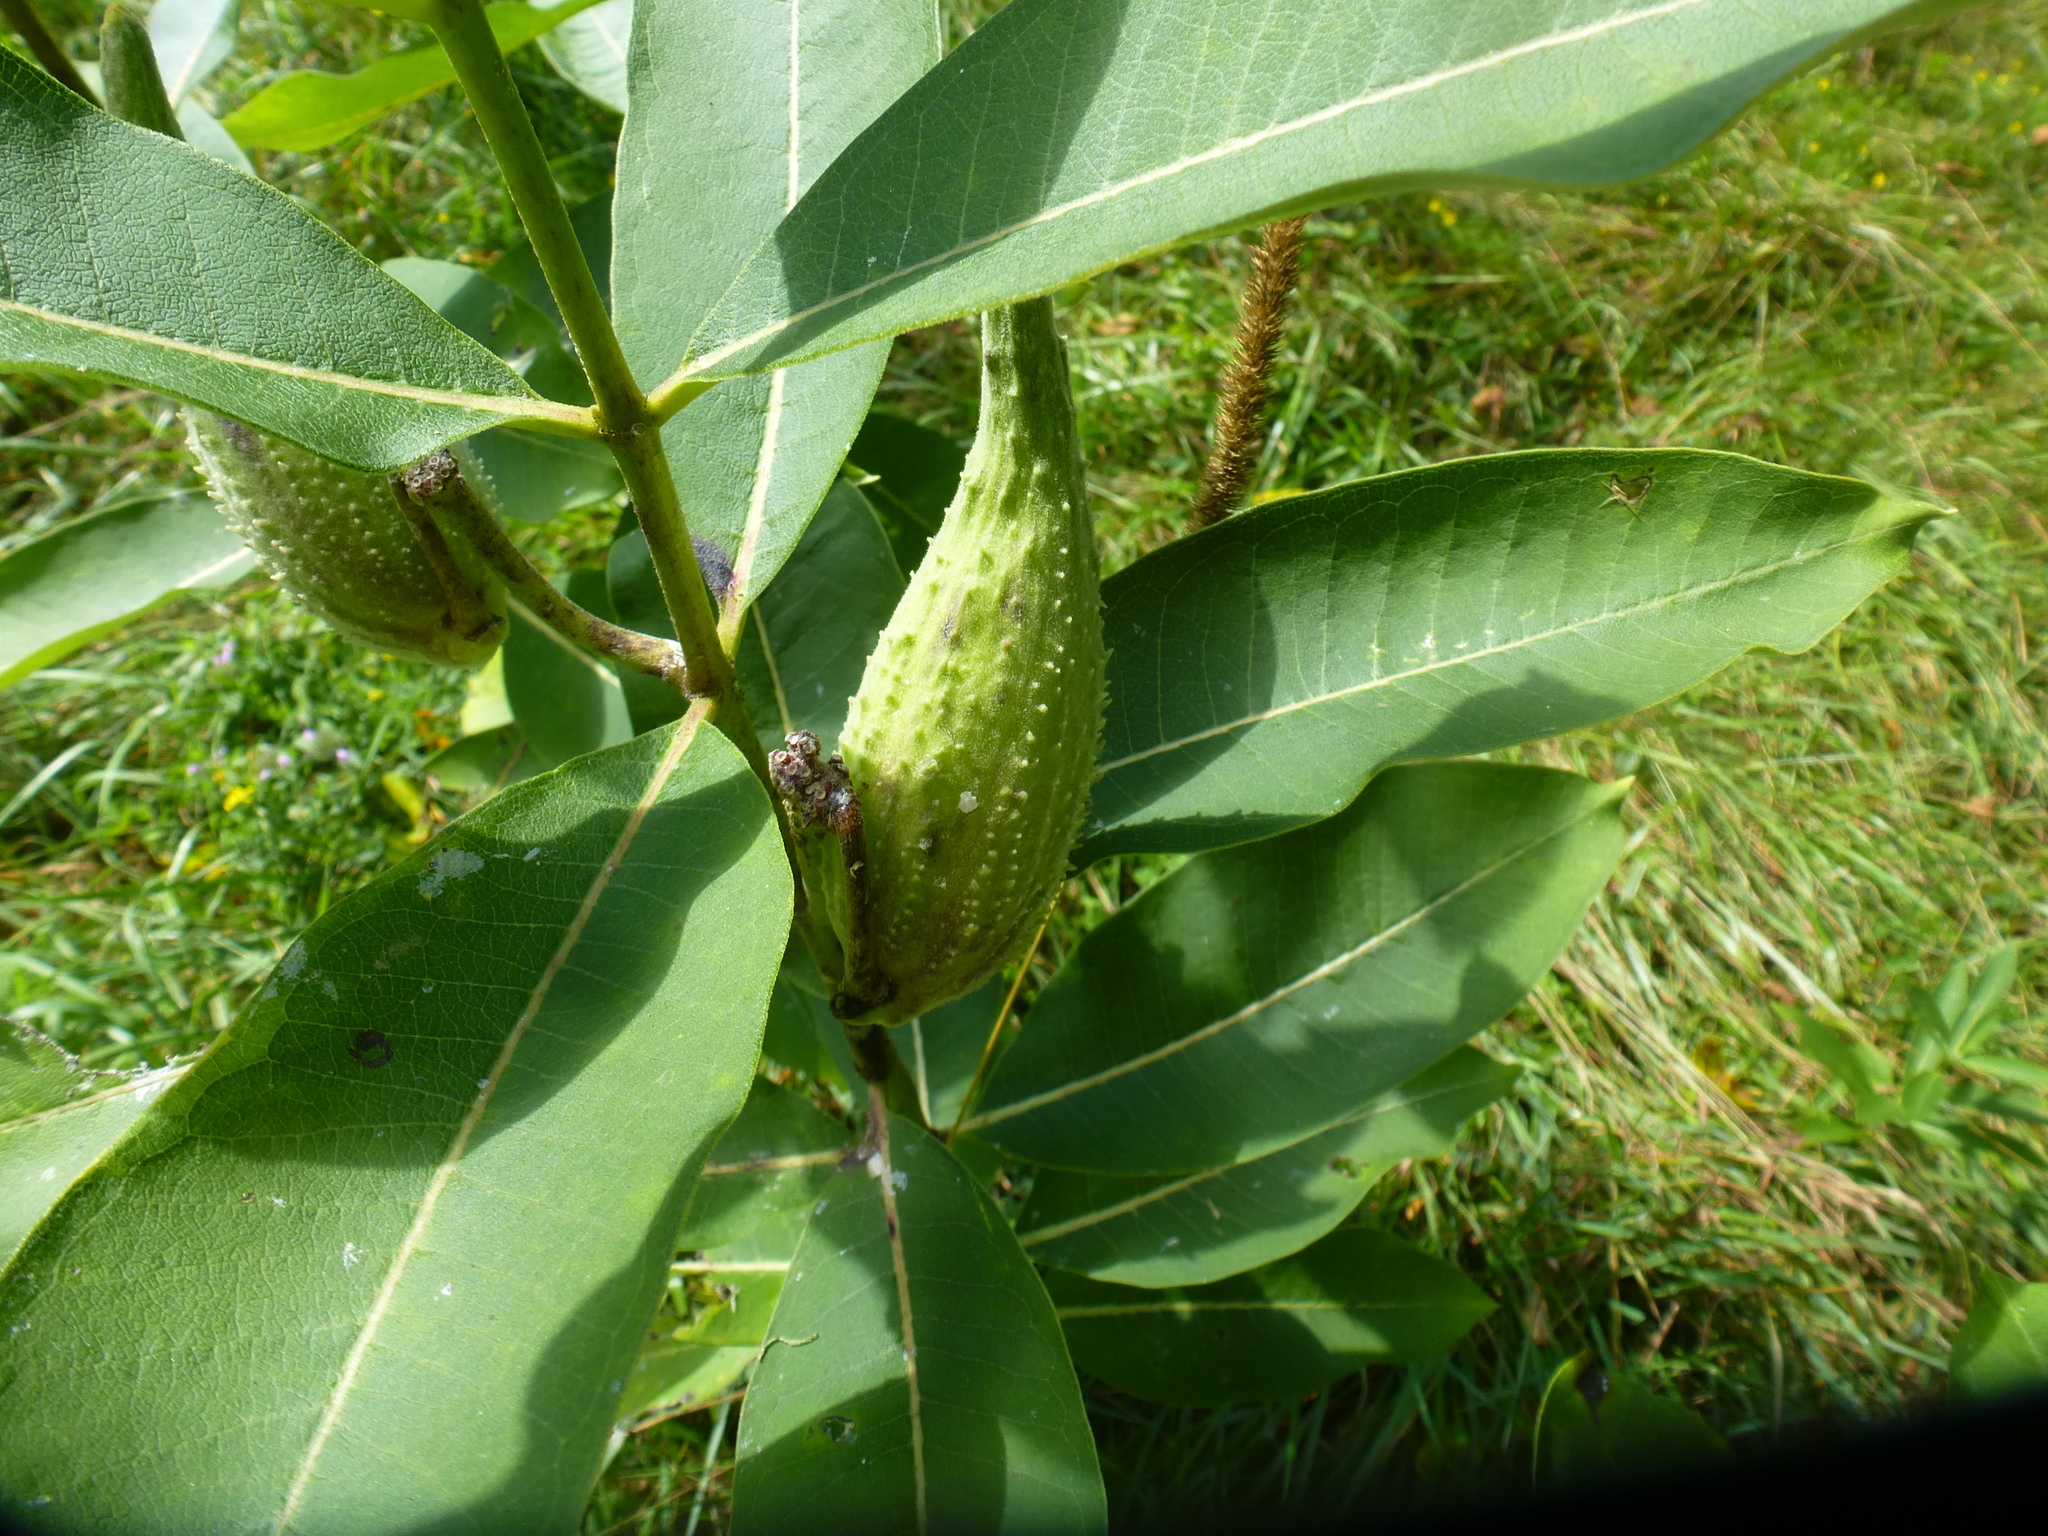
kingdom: Plantae
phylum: Tracheophyta
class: Magnoliopsida
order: Gentianales
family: Apocynaceae
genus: Asclepias
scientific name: Asclepias syriaca
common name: Common milkweed
